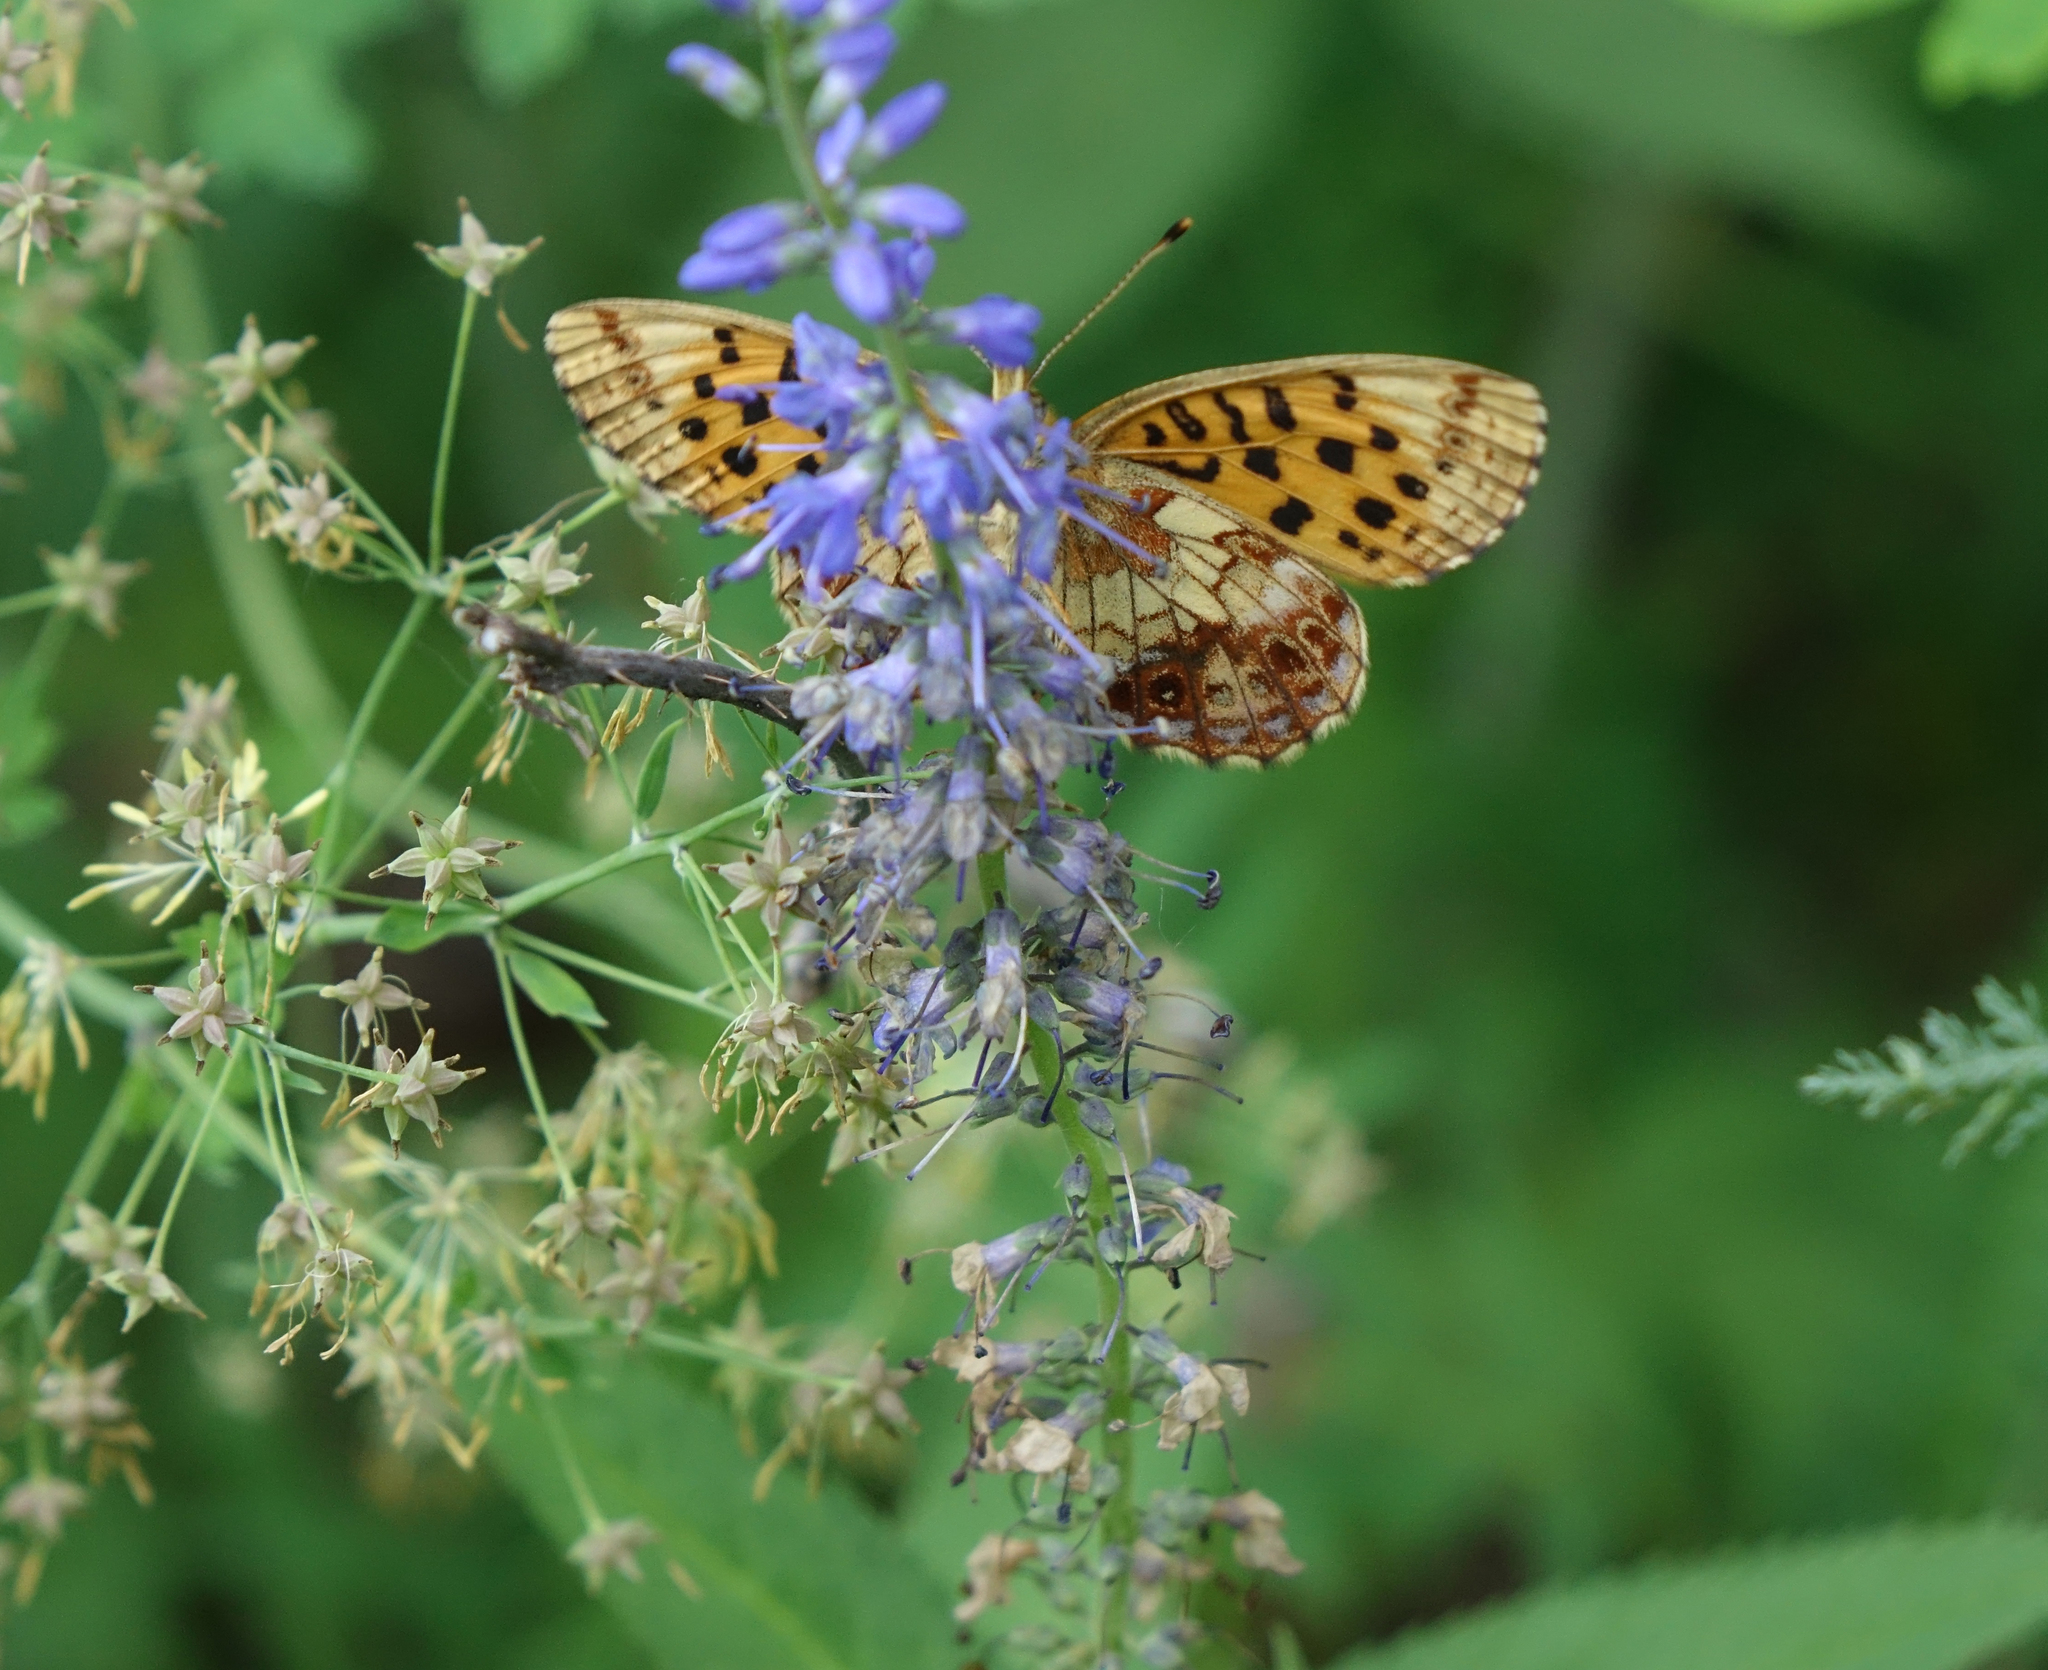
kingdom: Animalia
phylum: Arthropoda
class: Insecta
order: Lepidoptera
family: Nymphalidae
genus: Boloria
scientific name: Boloria thore
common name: Thor's fritillary
